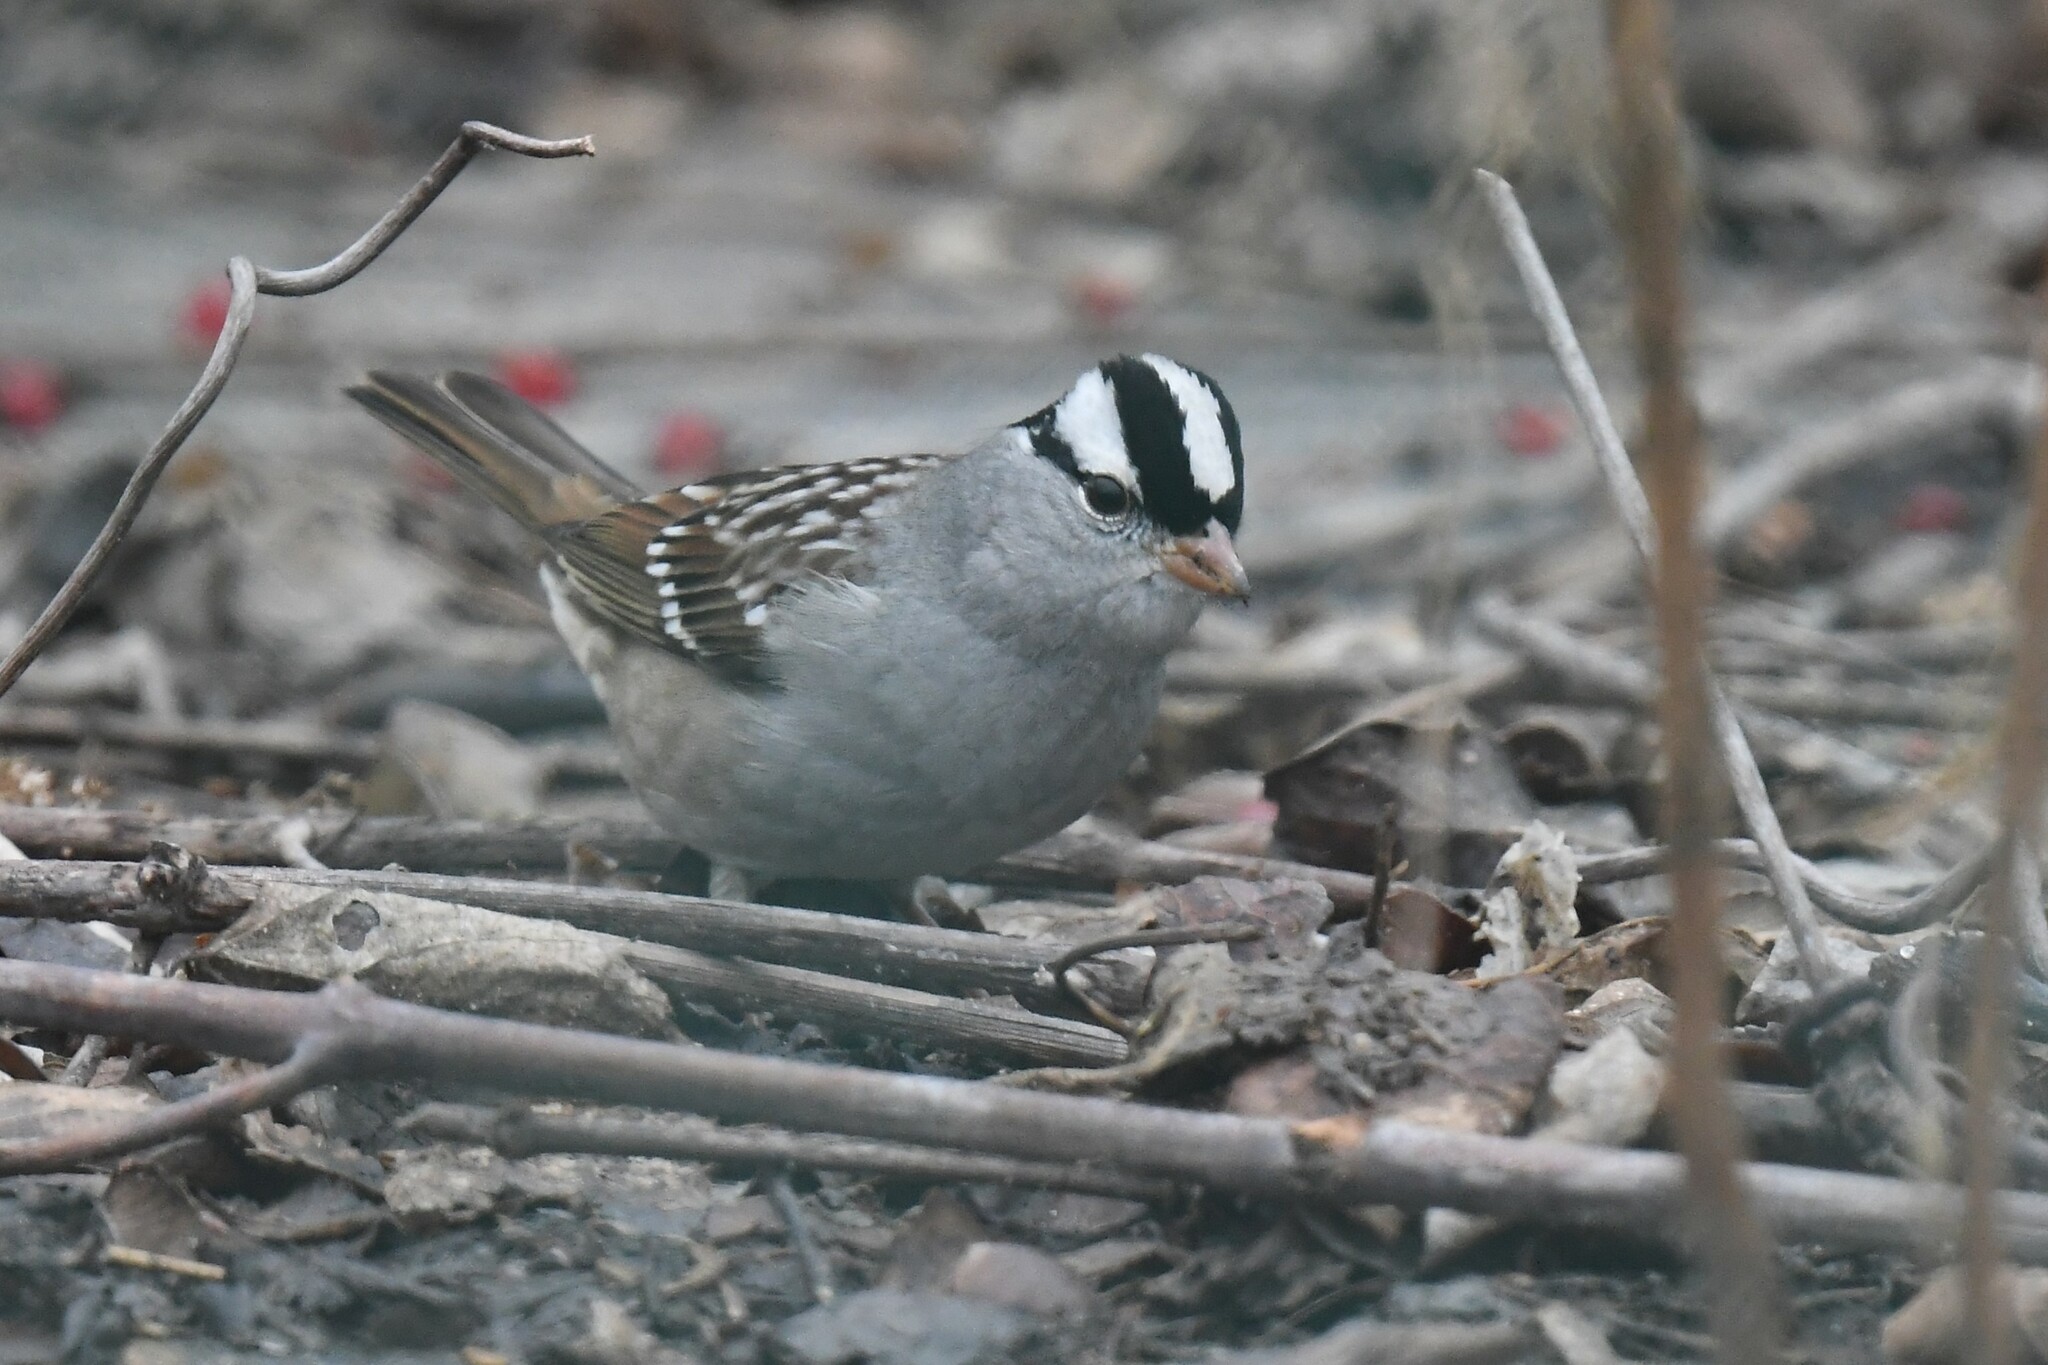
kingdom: Animalia
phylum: Chordata
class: Aves
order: Passeriformes
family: Passerellidae
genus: Zonotrichia
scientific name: Zonotrichia leucophrys
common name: White-crowned sparrow
